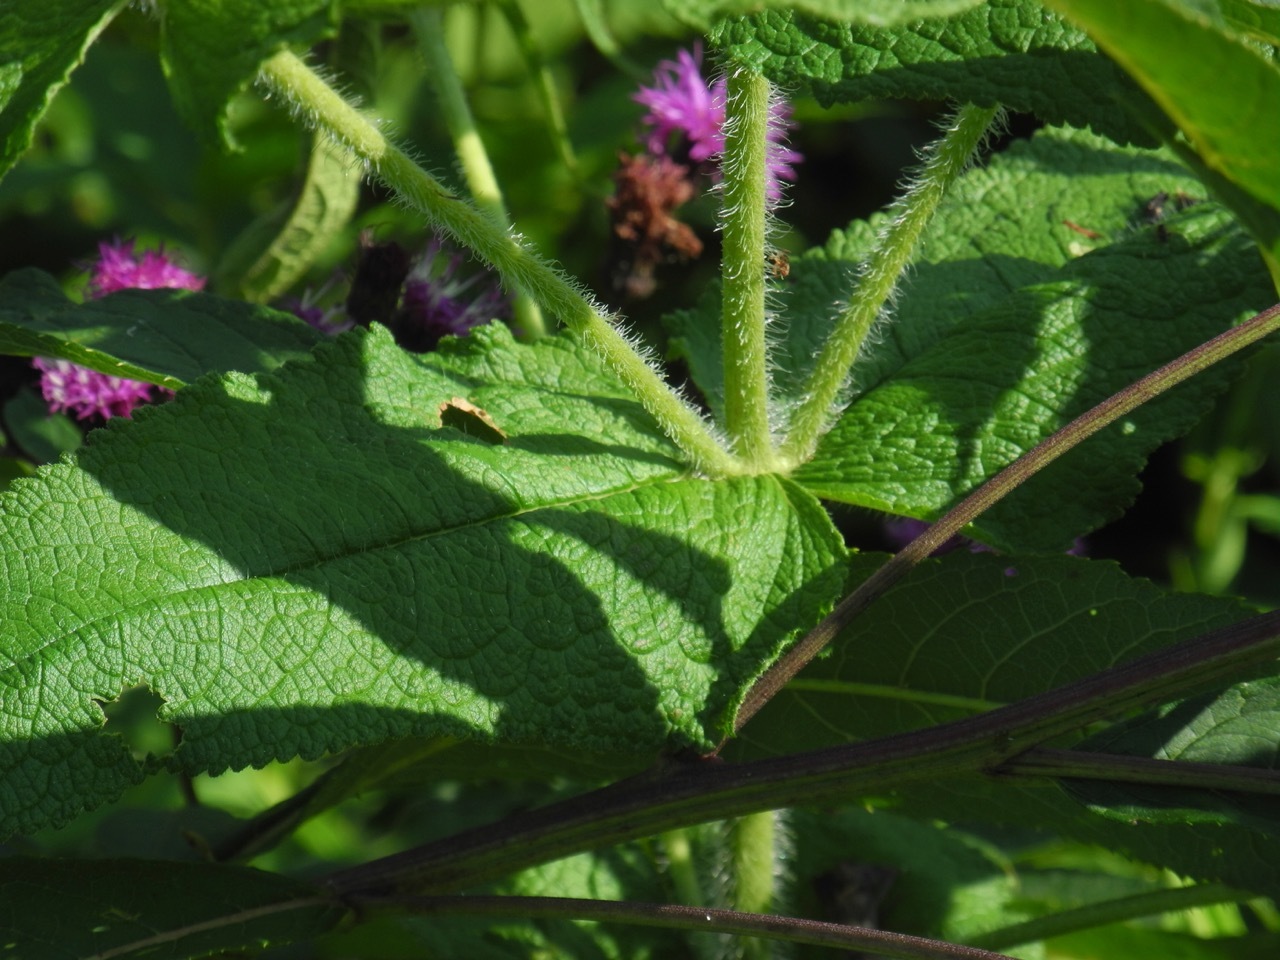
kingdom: Plantae
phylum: Tracheophyta
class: Magnoliopsida
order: Asterales
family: Asteraceae
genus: Eupatorium
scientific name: Eupatorium perfoliatum
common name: Boneset
